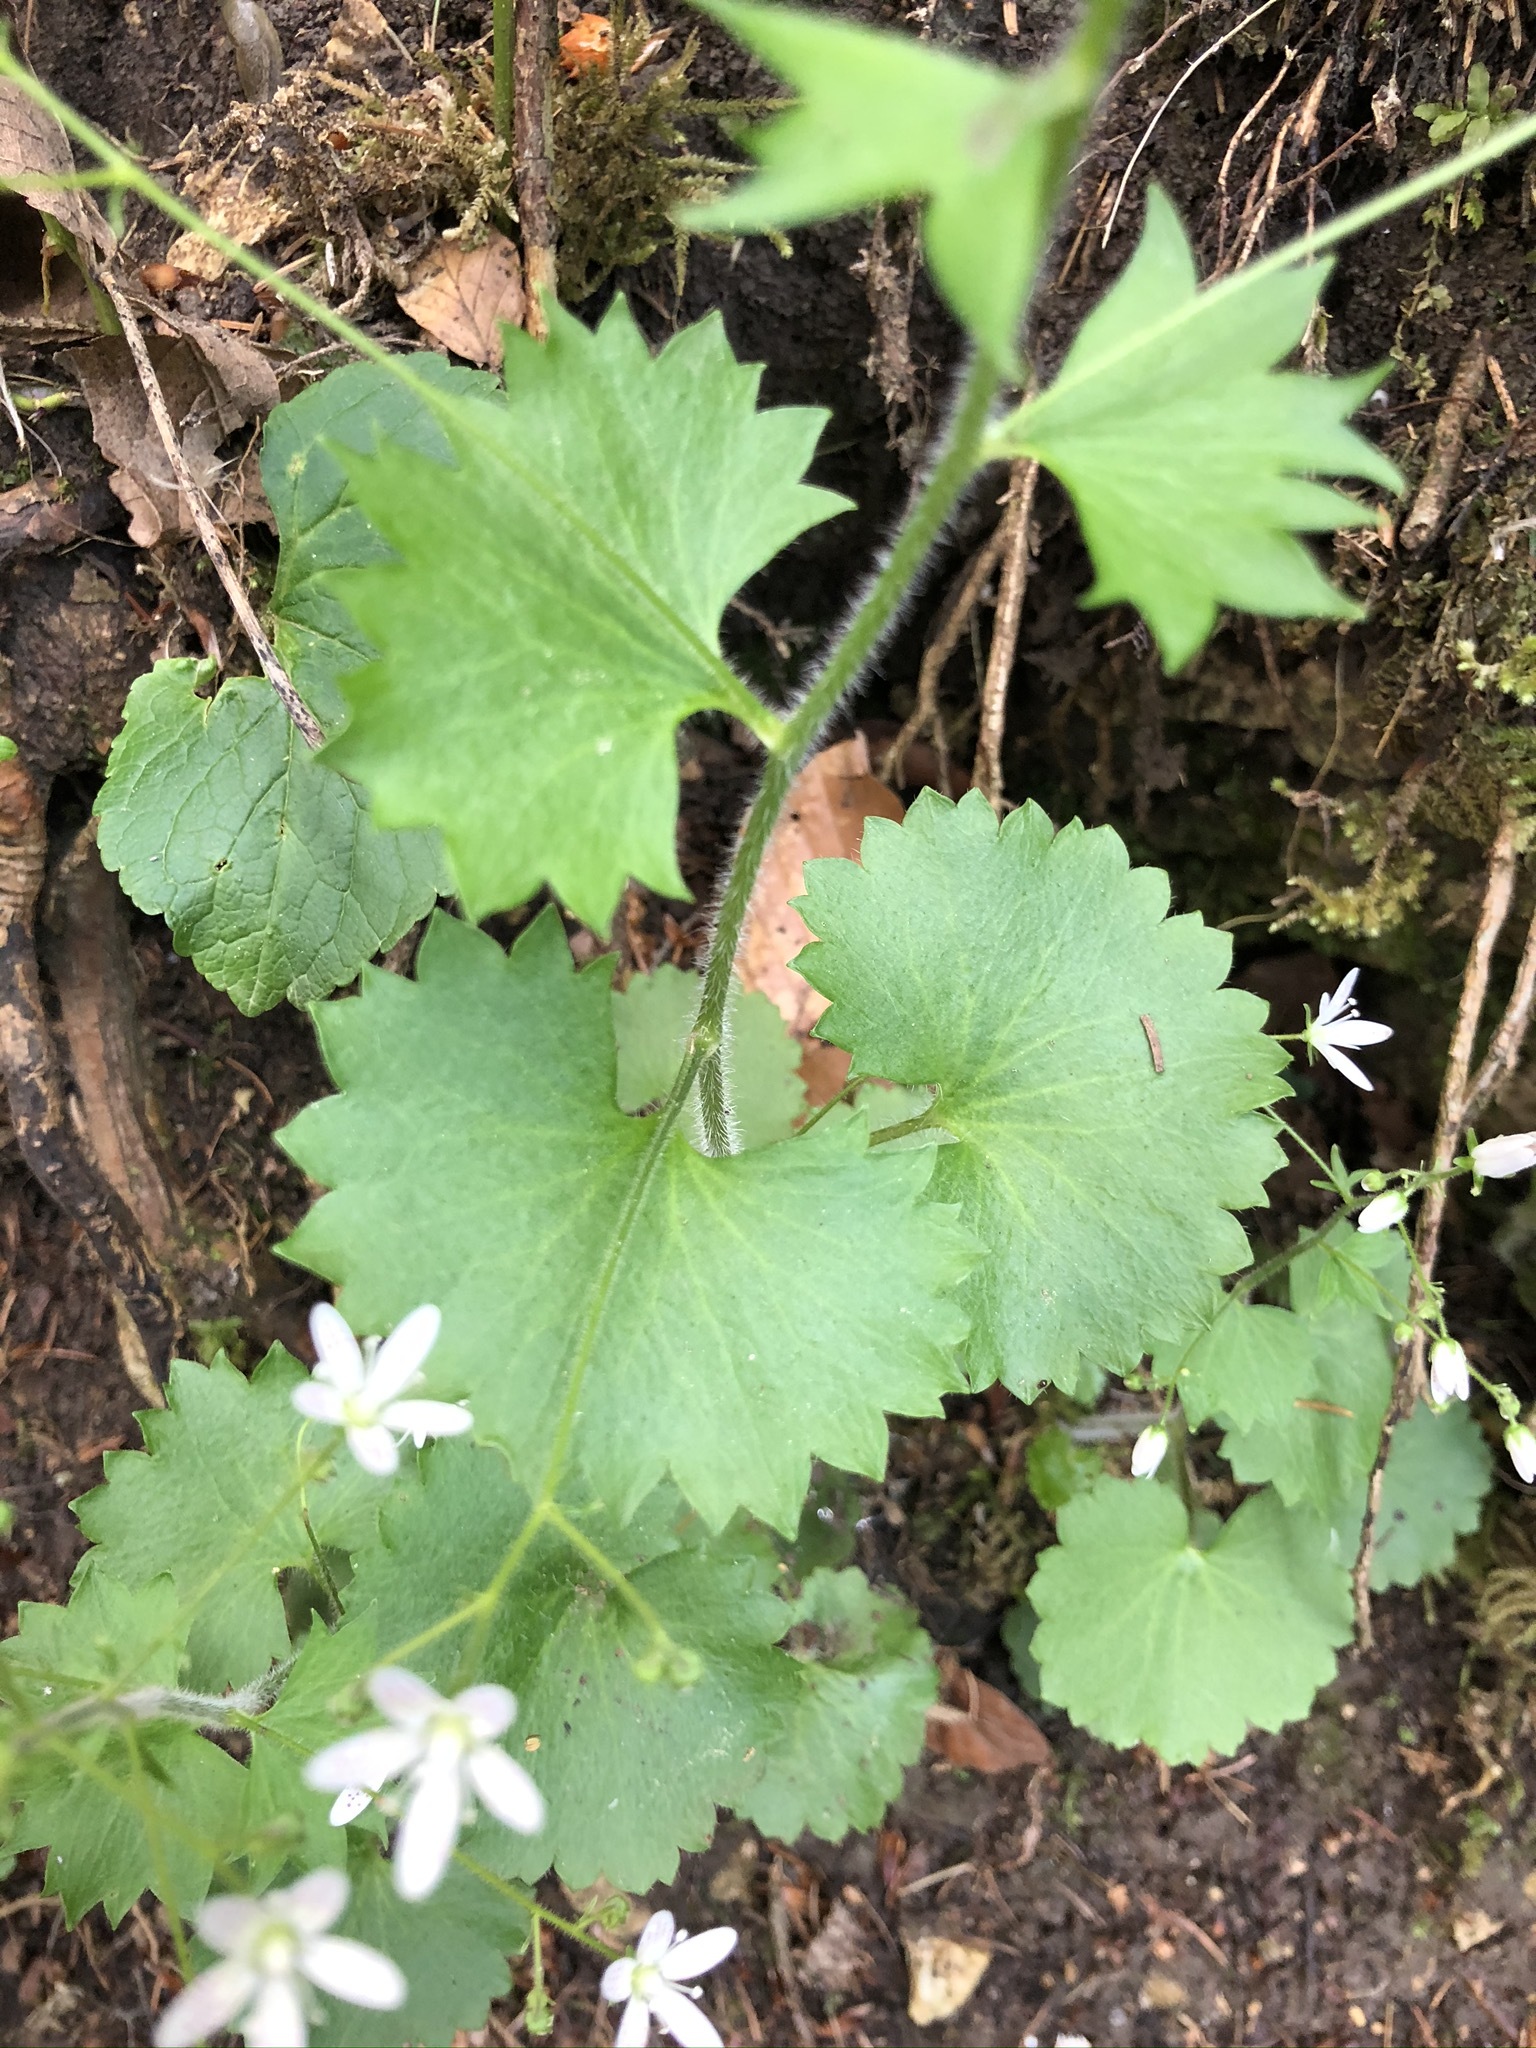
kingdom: Plantae
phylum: Tracheophyta
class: Magnoliopsida
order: Saxifragales
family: Saxifragaceae
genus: Saxifraga
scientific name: Saxifraga rotundifolia
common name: Round-leaved saxifrage
